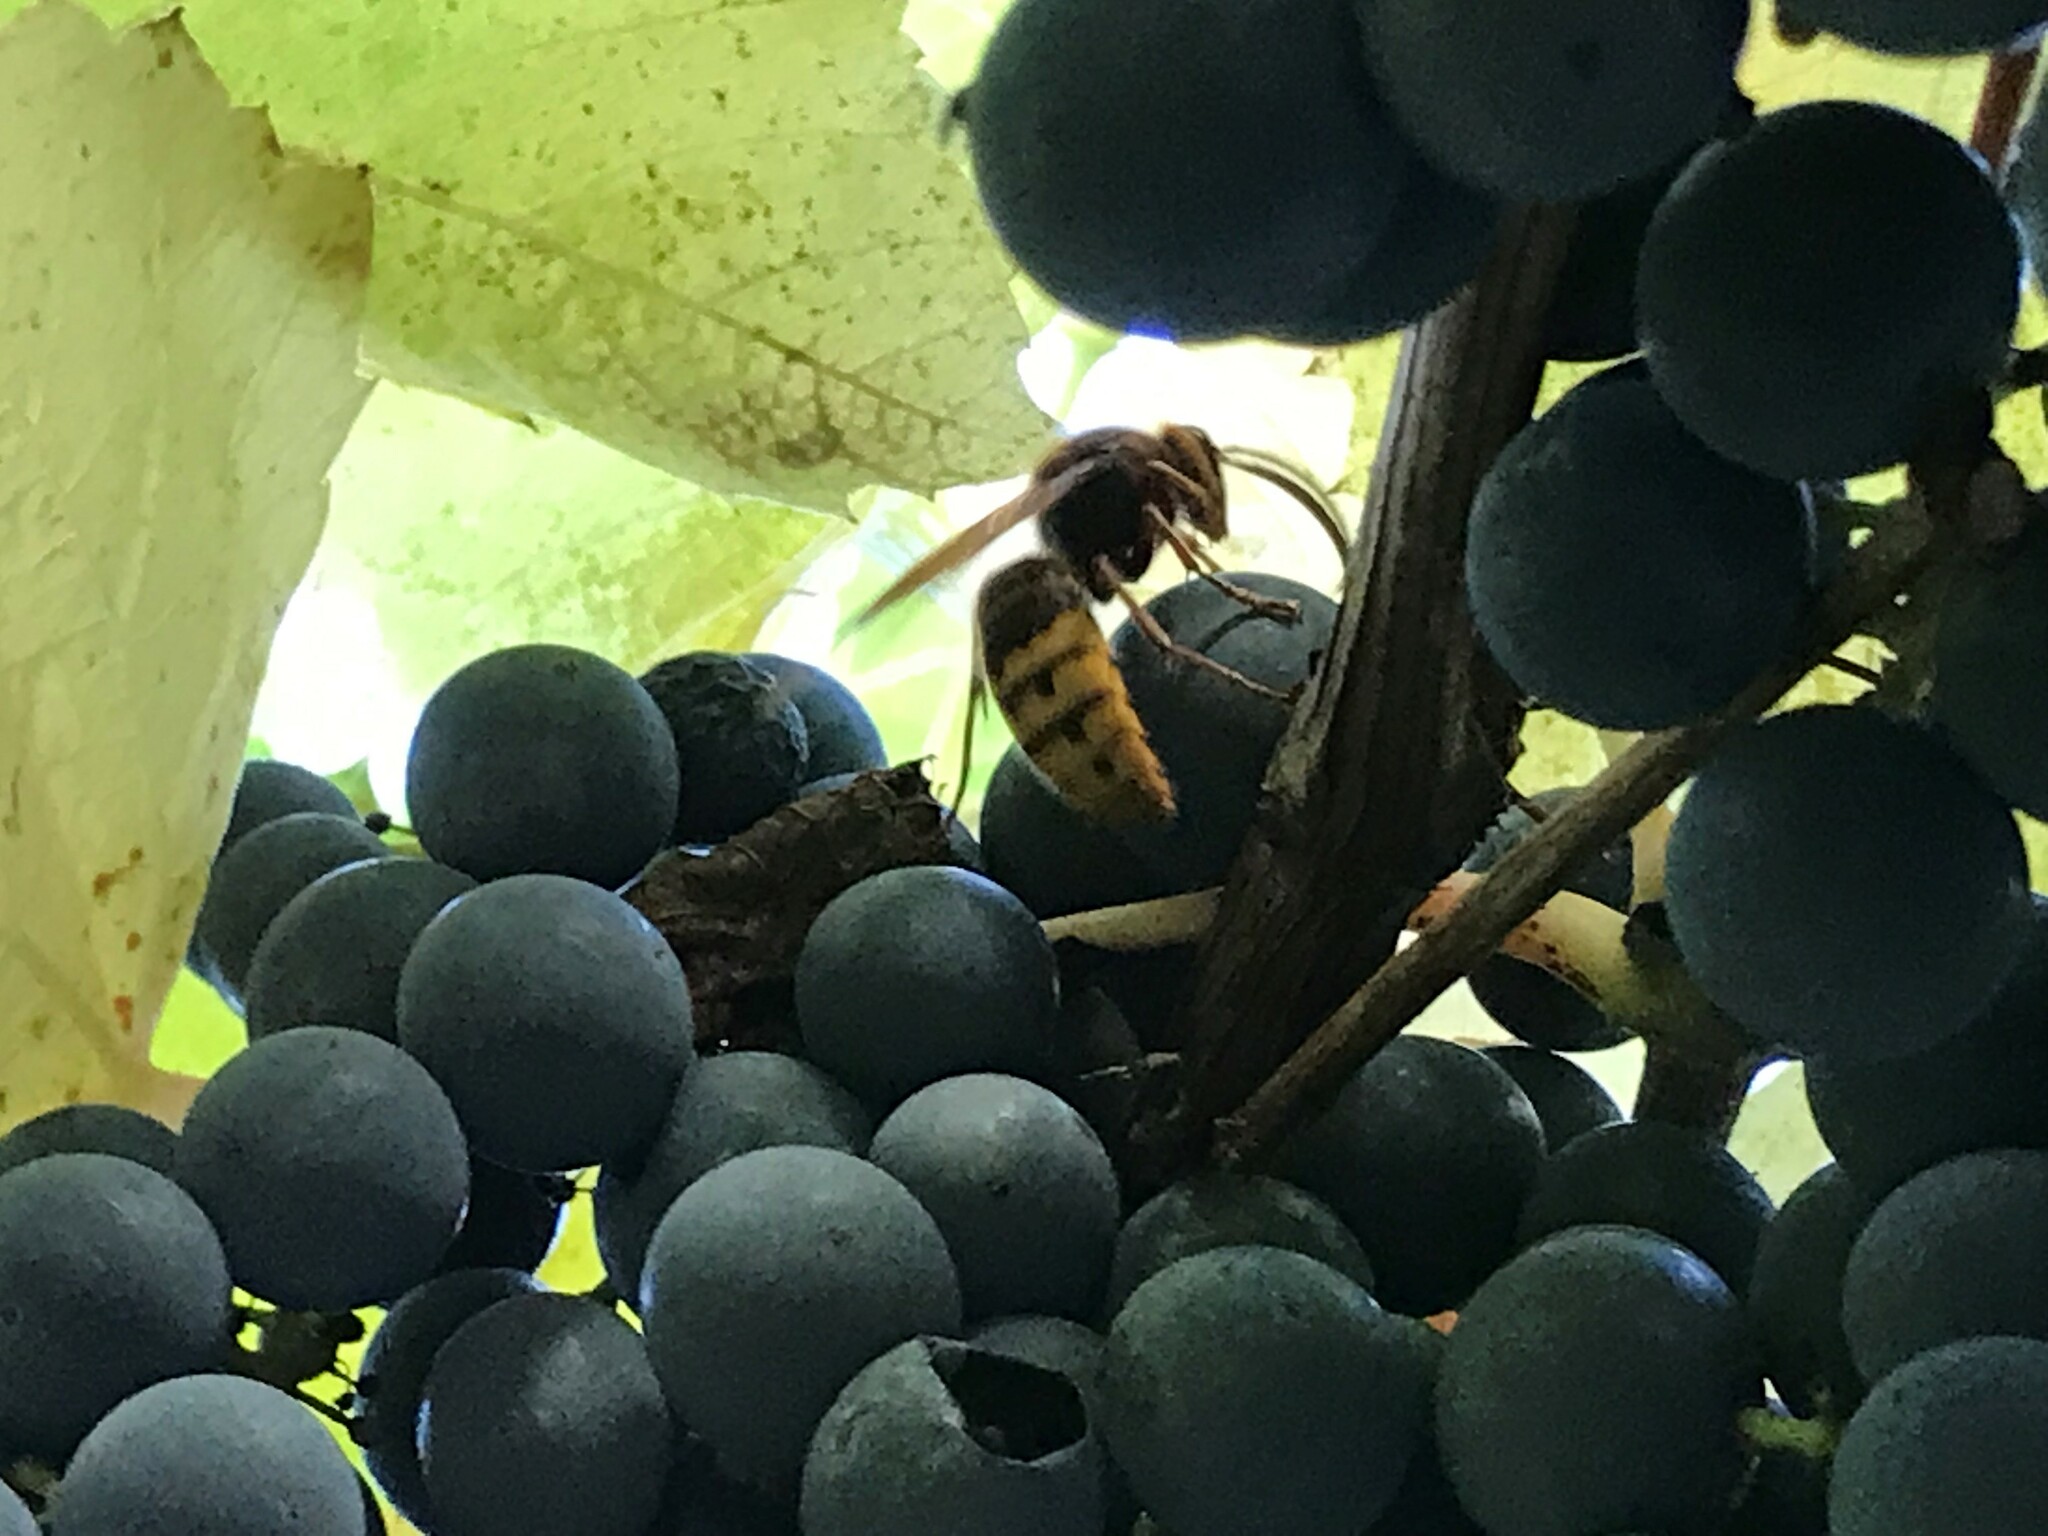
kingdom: Animalia
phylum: Arthropoda
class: Insecta
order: Hymenoptera
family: Vespidae
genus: Vespa
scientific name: Vespa crabro
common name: Hornet
